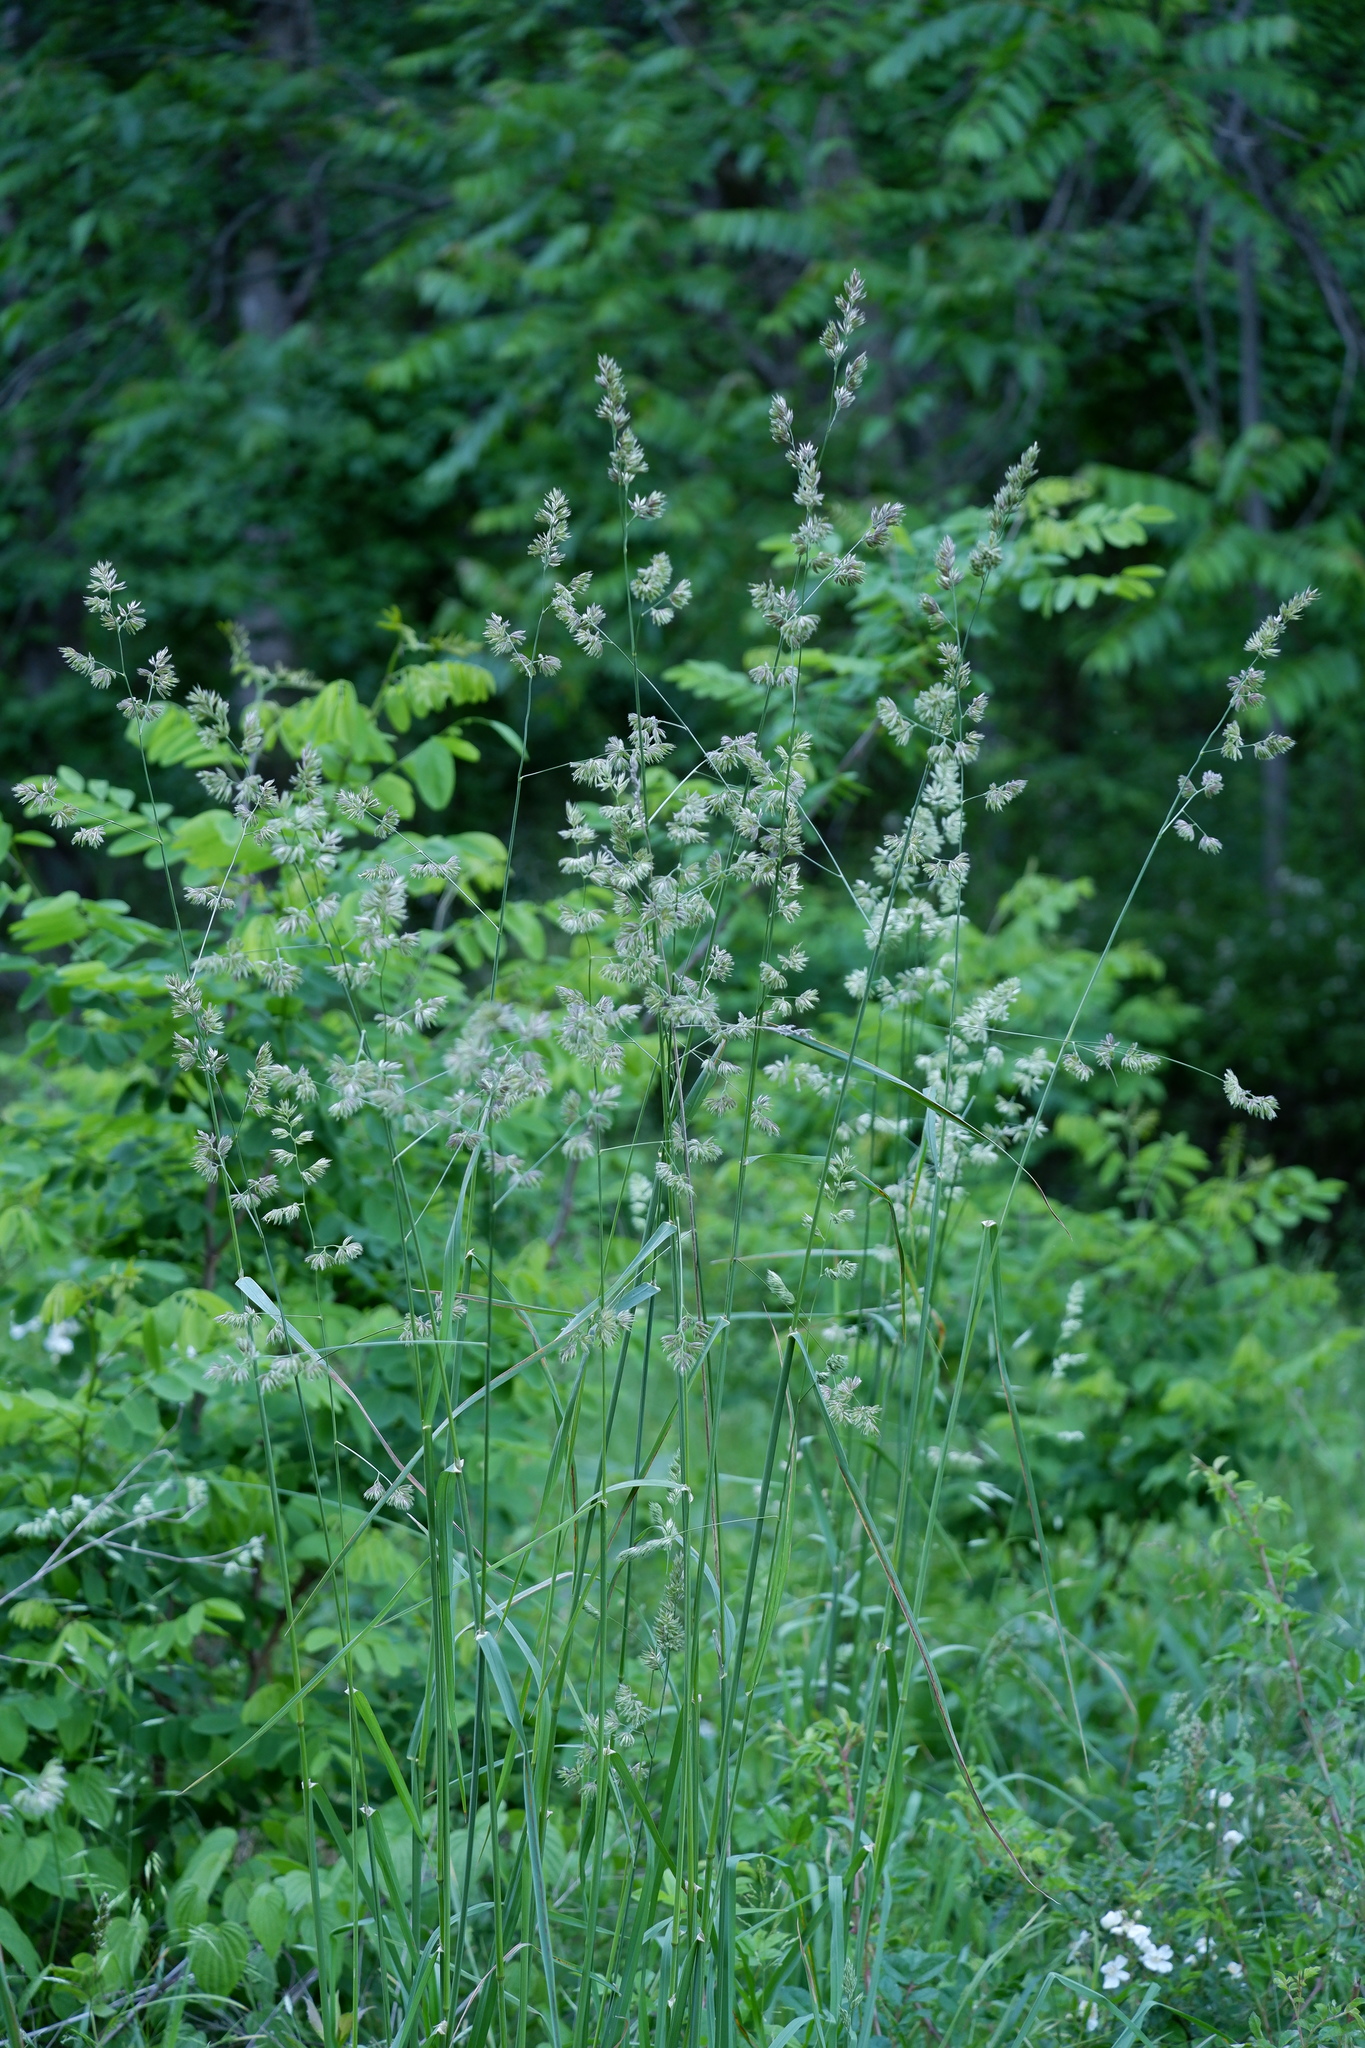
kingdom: Plantae
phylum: Tracheophyta
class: Liliopsida
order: Poales
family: Poaceae
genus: Dactylis
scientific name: Dactylis glomerata
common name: Orchardgrass
